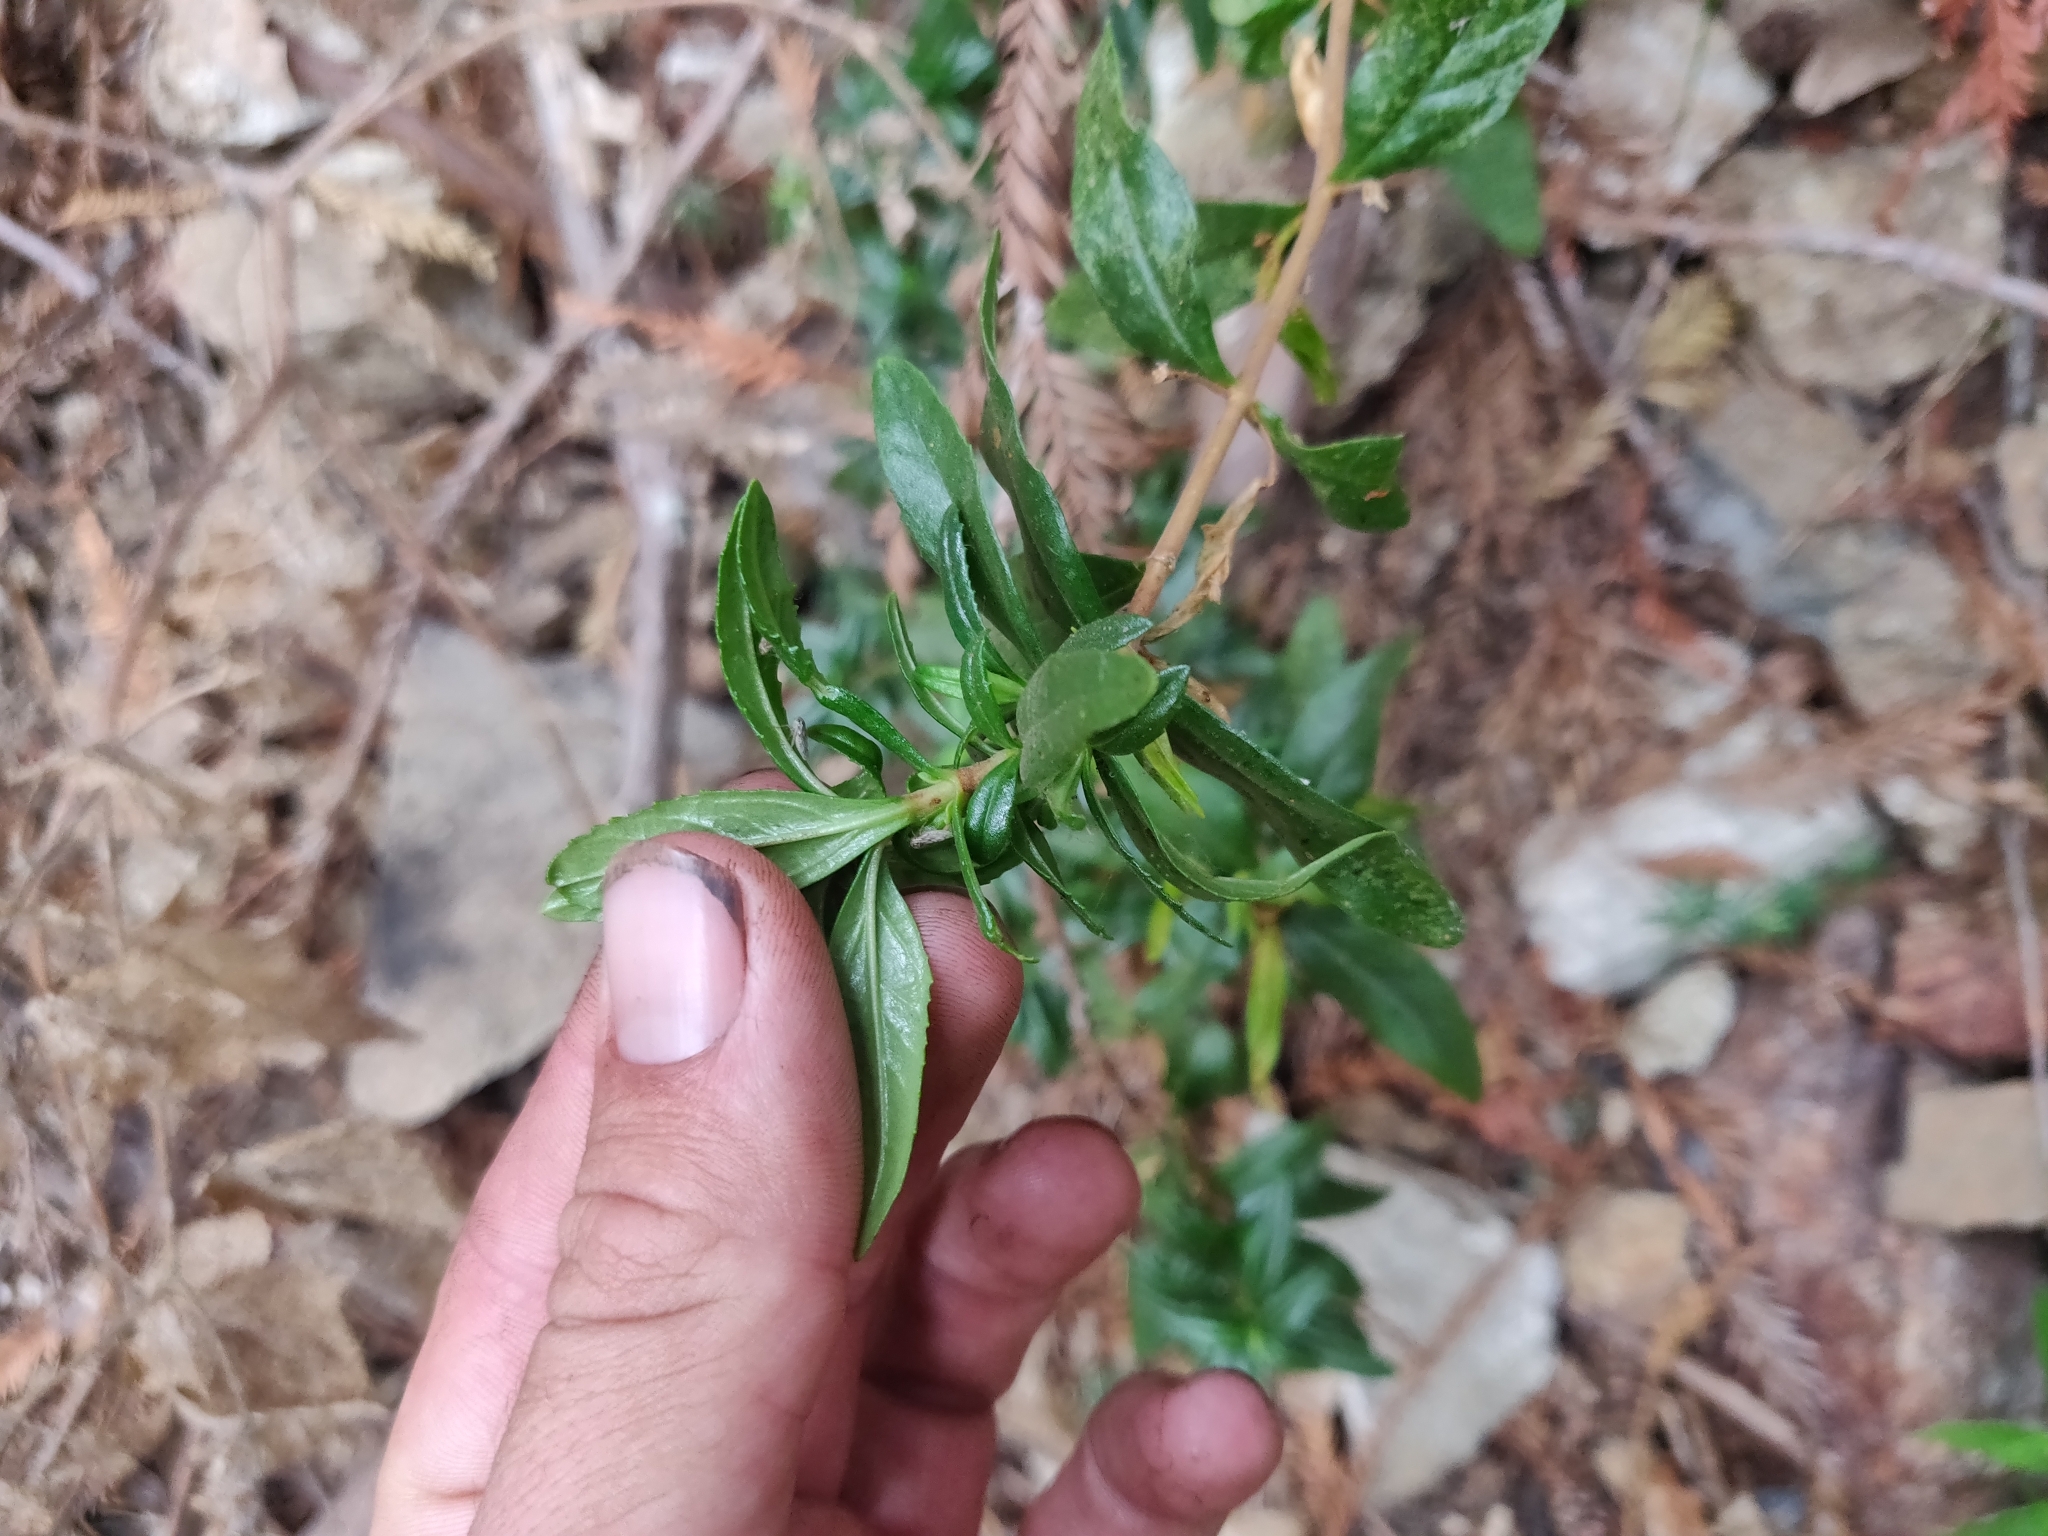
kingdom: Plantae
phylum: Tracheophyta
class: Magnoliopsida
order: Lamiales
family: Phrymaceae
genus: Diplacus
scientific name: Diplacus aurantiacus
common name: Bush monkey-flower
